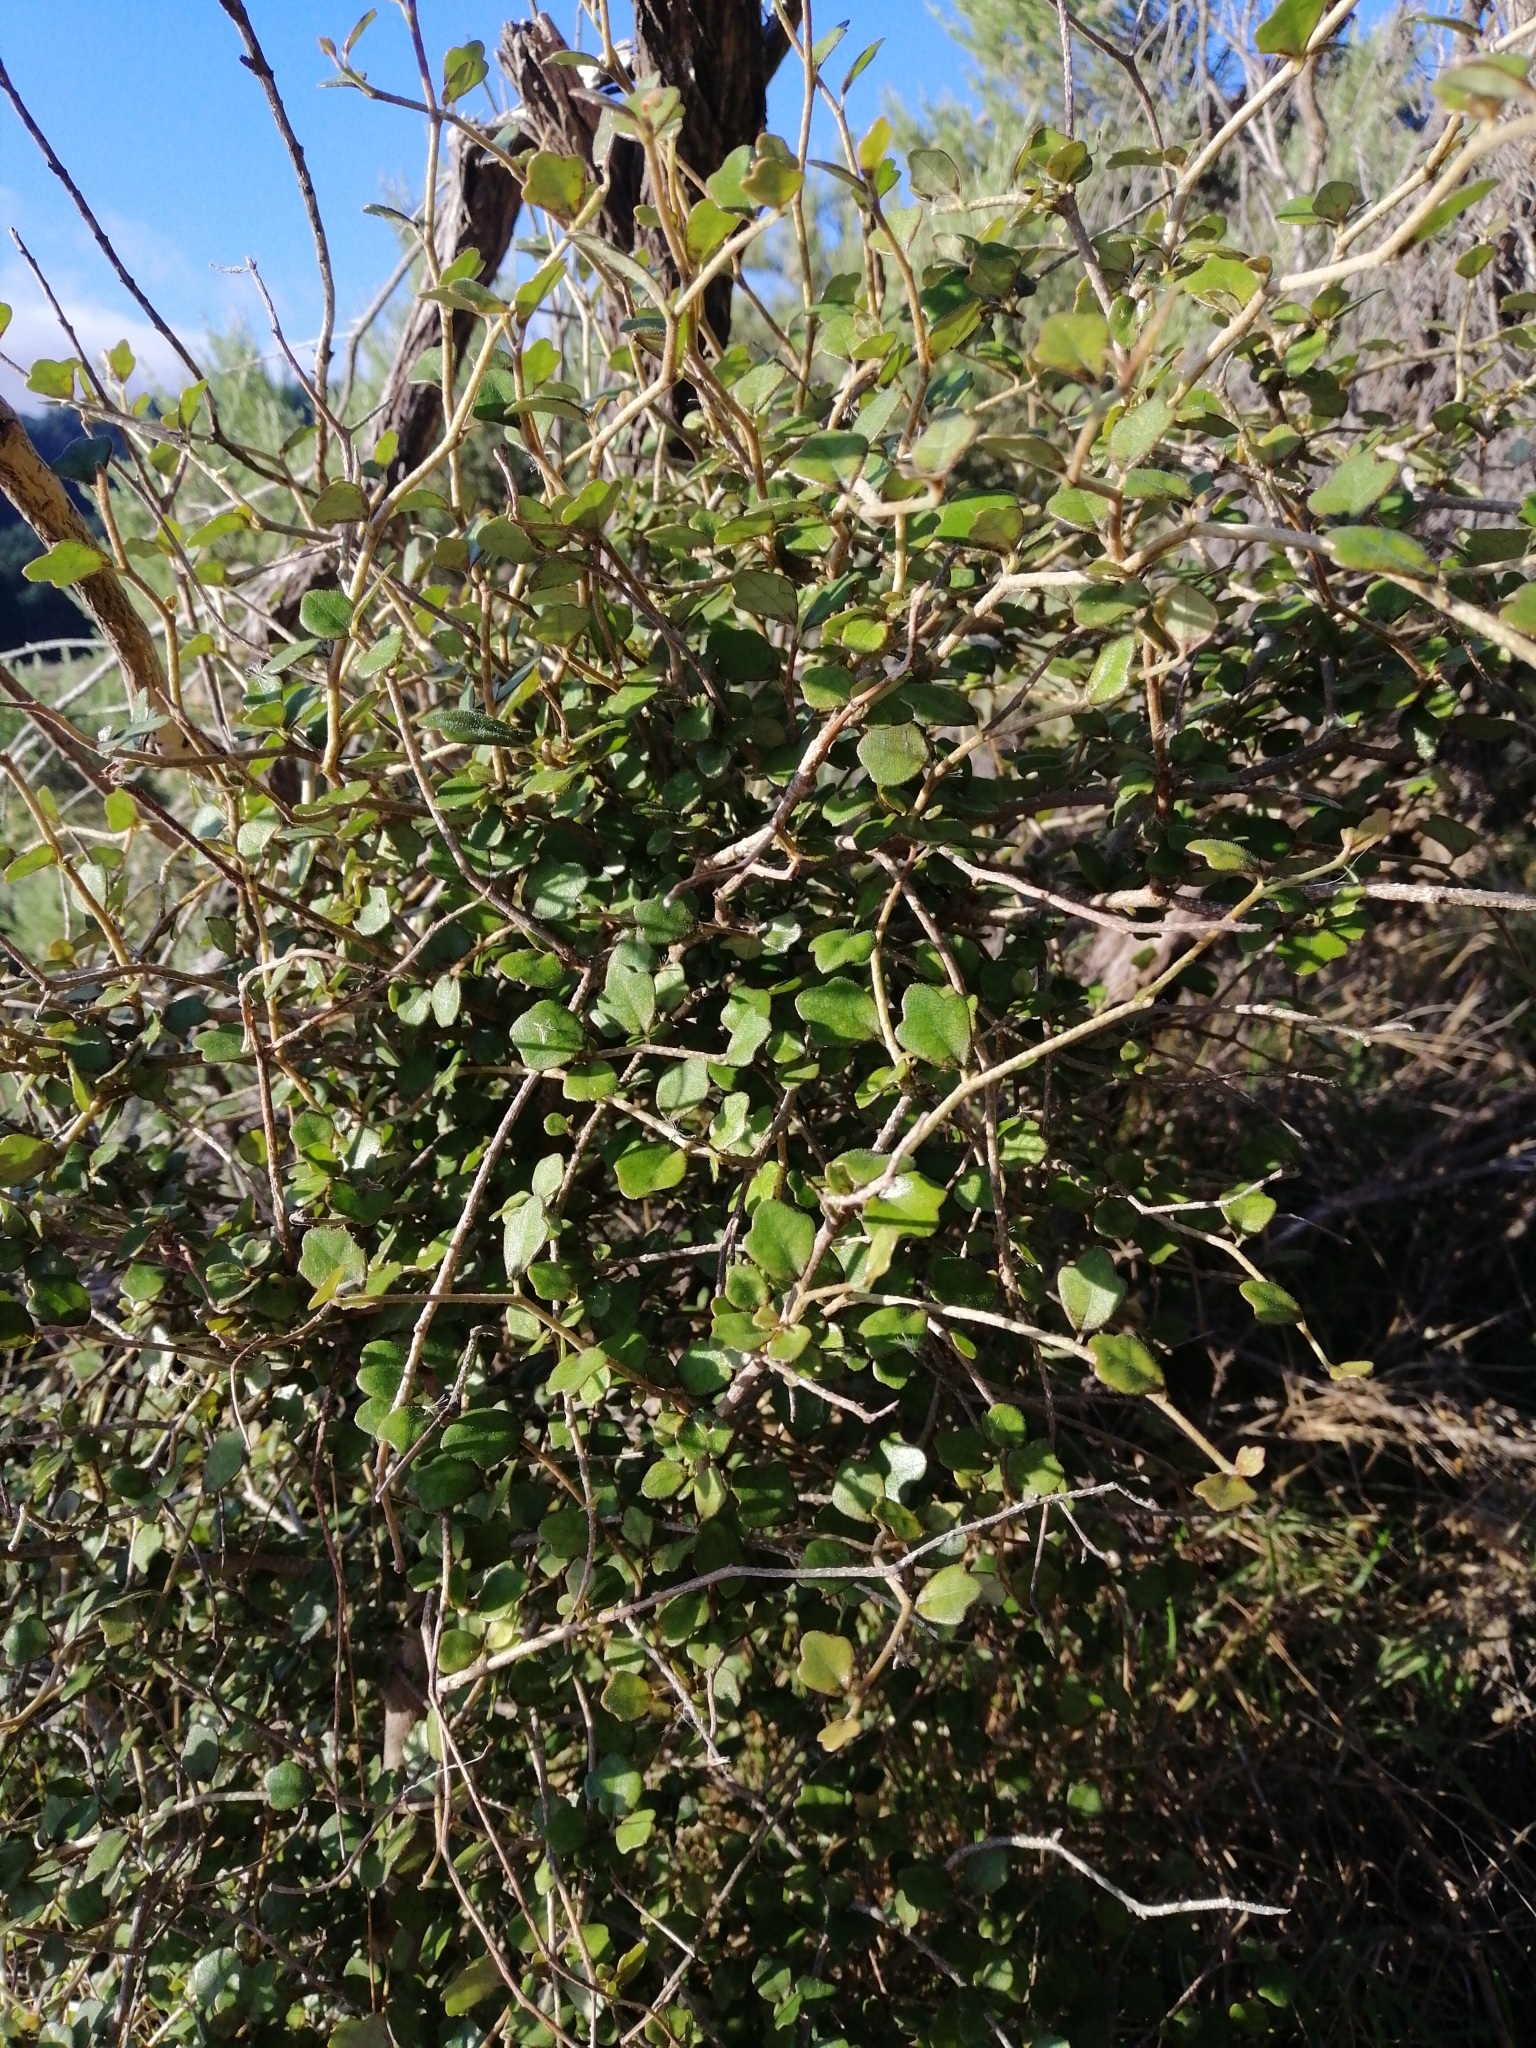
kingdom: Plantae
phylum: Tracheophyta
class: Magnoliopsida
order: Apiales
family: Pennantiaceae
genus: Pennantia
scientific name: Pennantia corymbosa
